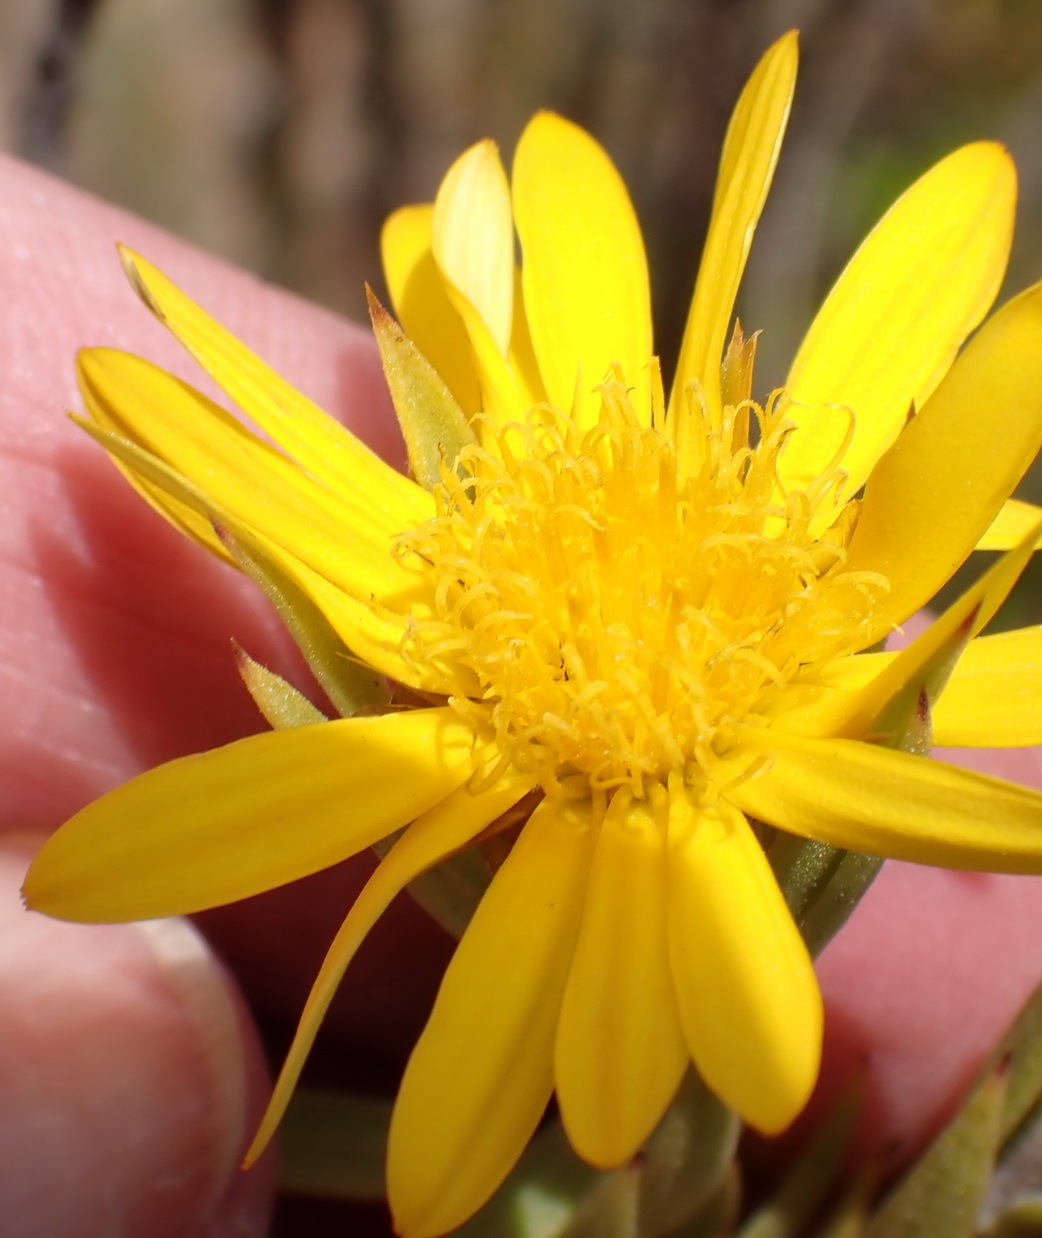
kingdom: Plantae
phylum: Tracheophyta
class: Magnoliopsida
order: Asterales
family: Asteraceae
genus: Oedera
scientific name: Oedera calycina
